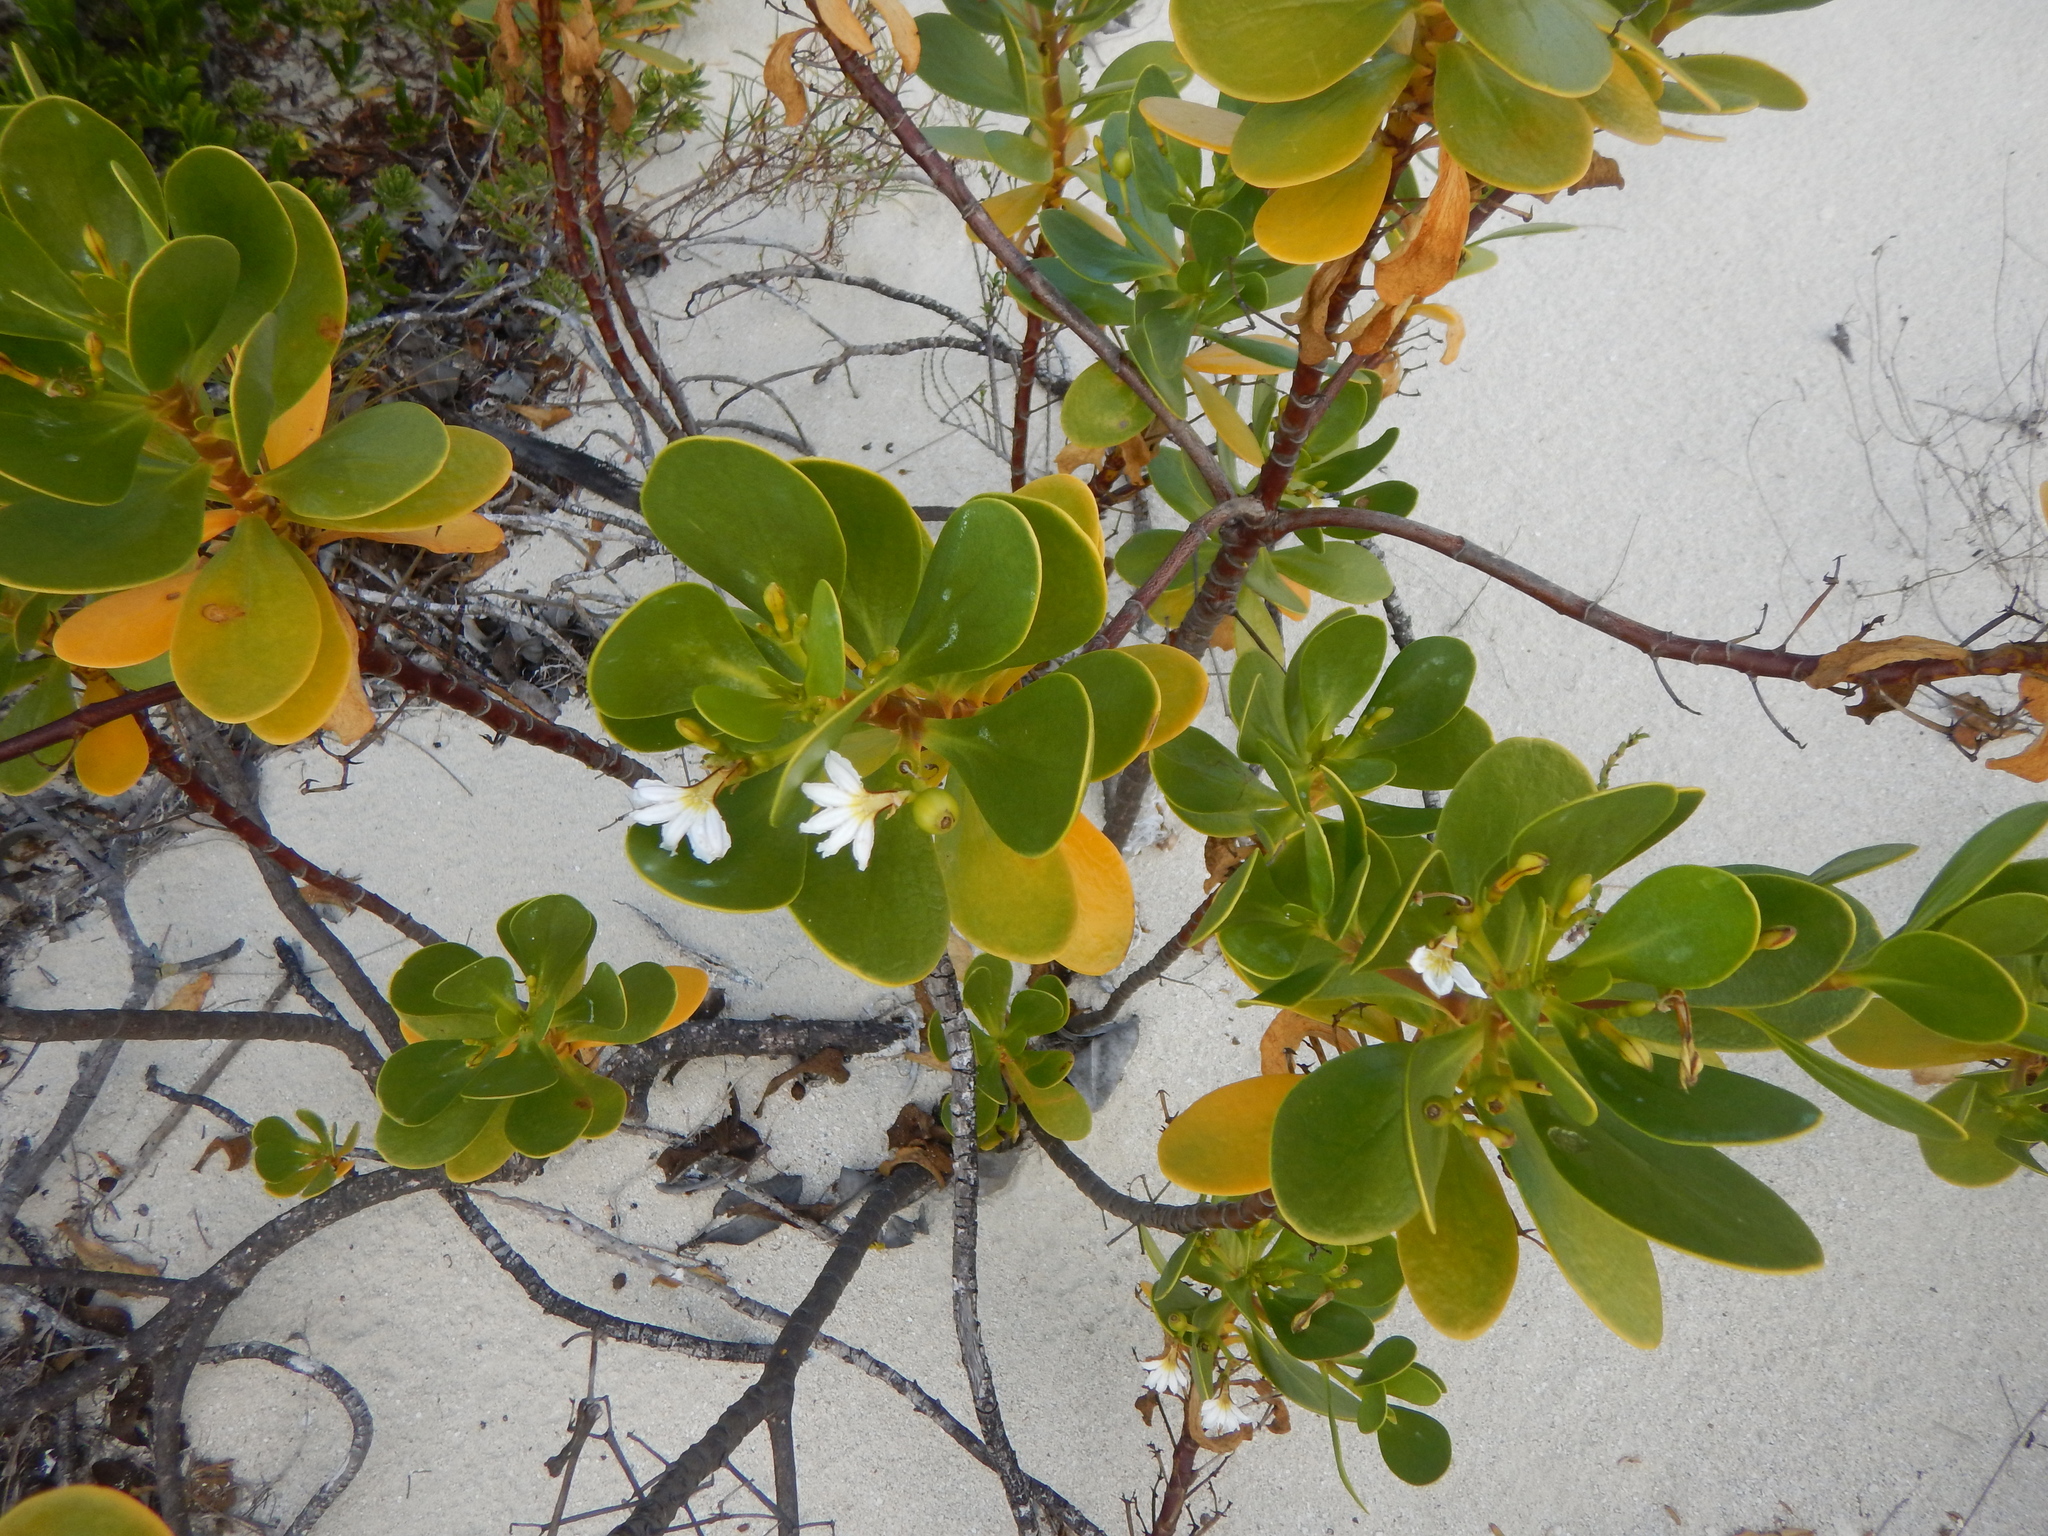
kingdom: Plantae
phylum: Tracheophyta
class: Magnoliopsida
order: Asterales
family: Goodeniaceae
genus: Scaevola
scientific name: Scaevola plumieri
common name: Gull feed
